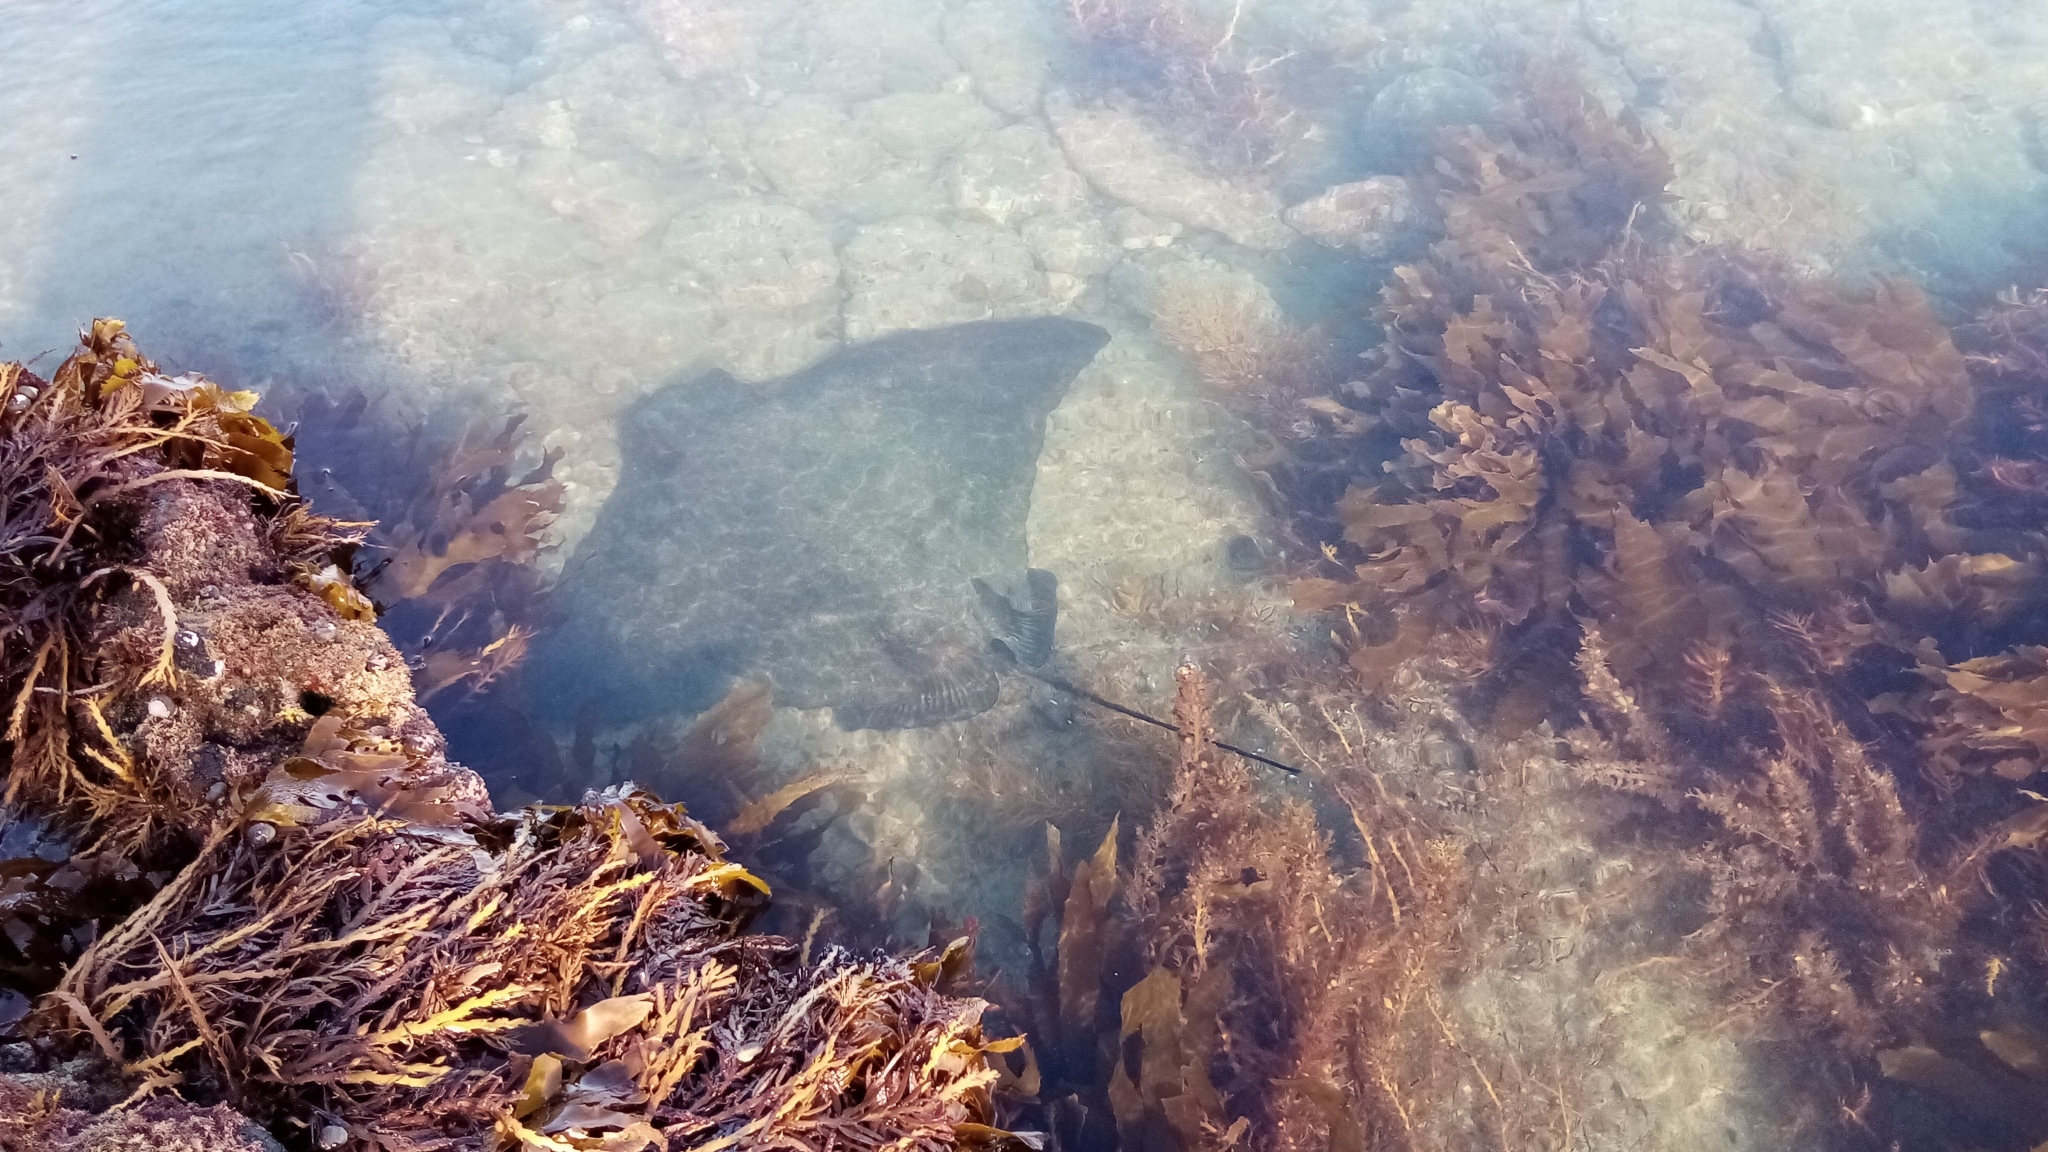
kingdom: Animalia
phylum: Chordata
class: Elasmobranchii
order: Myliobatiformes
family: Myliobatidae
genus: Myliobatis
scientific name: Myliobatis tenuicaudatus
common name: Eagle ray
